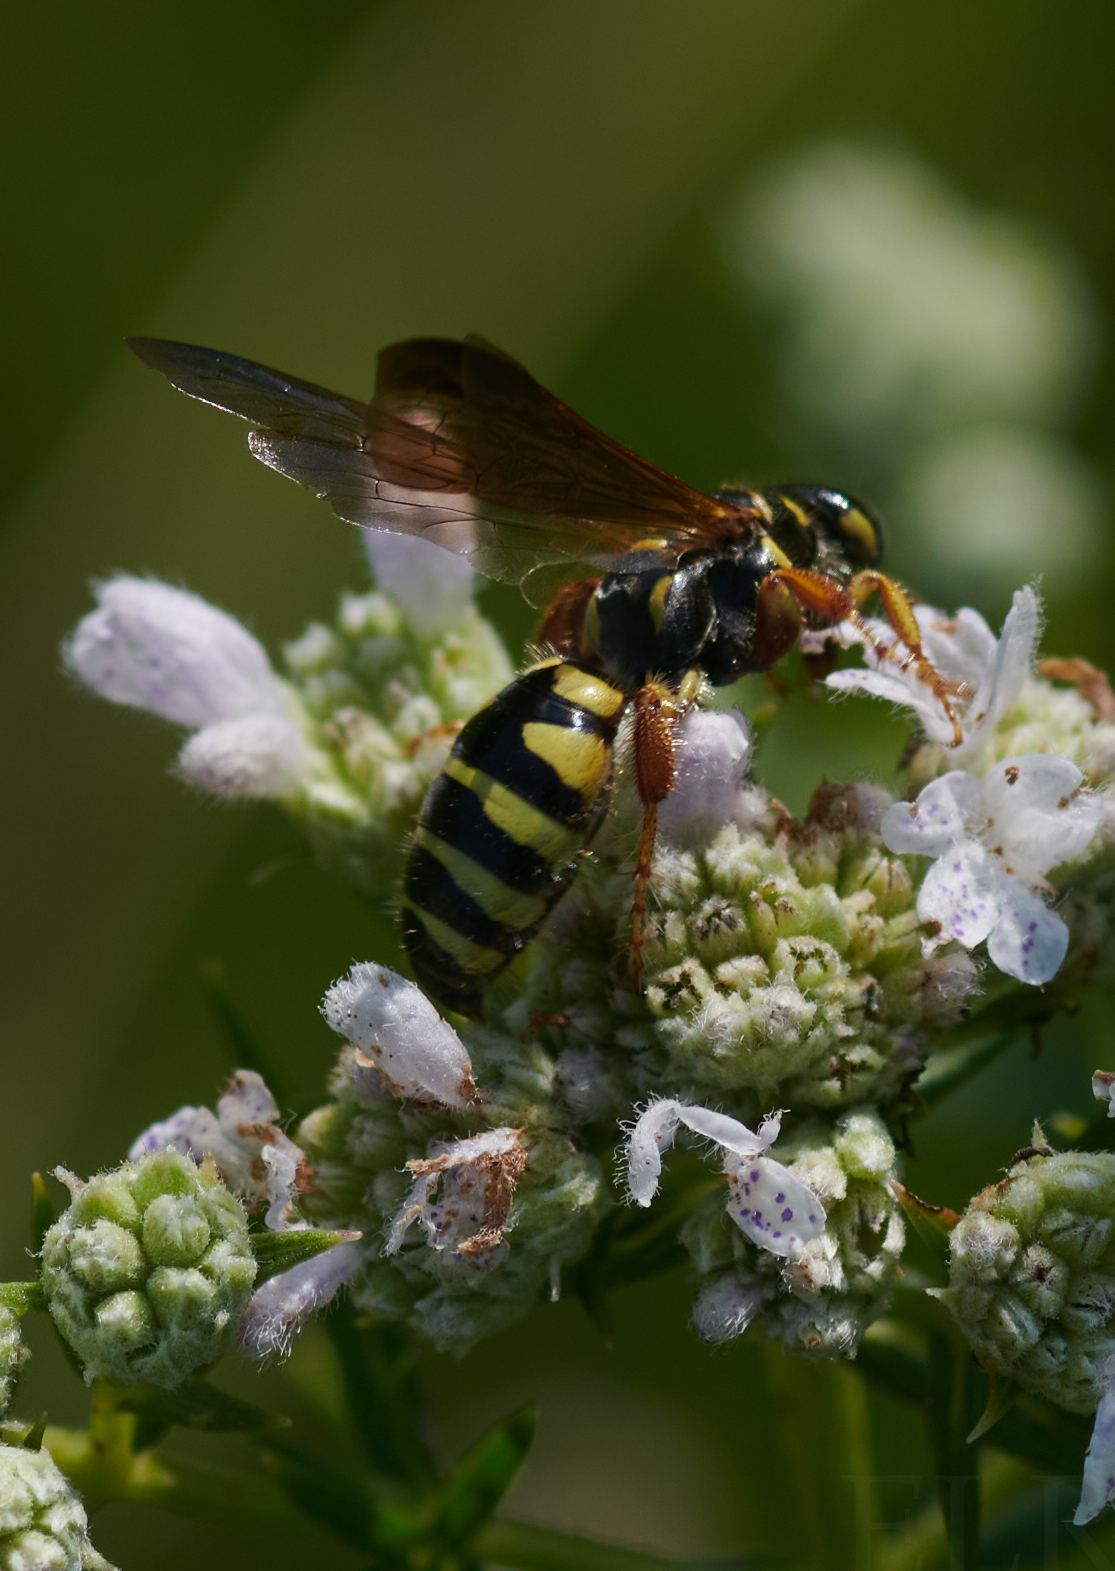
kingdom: Animalia
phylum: Arthropoda
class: Insecta
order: Hymenoptera
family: Tiphiidae
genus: Myzinum
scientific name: Myzinum quinquecinctum
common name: Five-banded thynnid wasp
